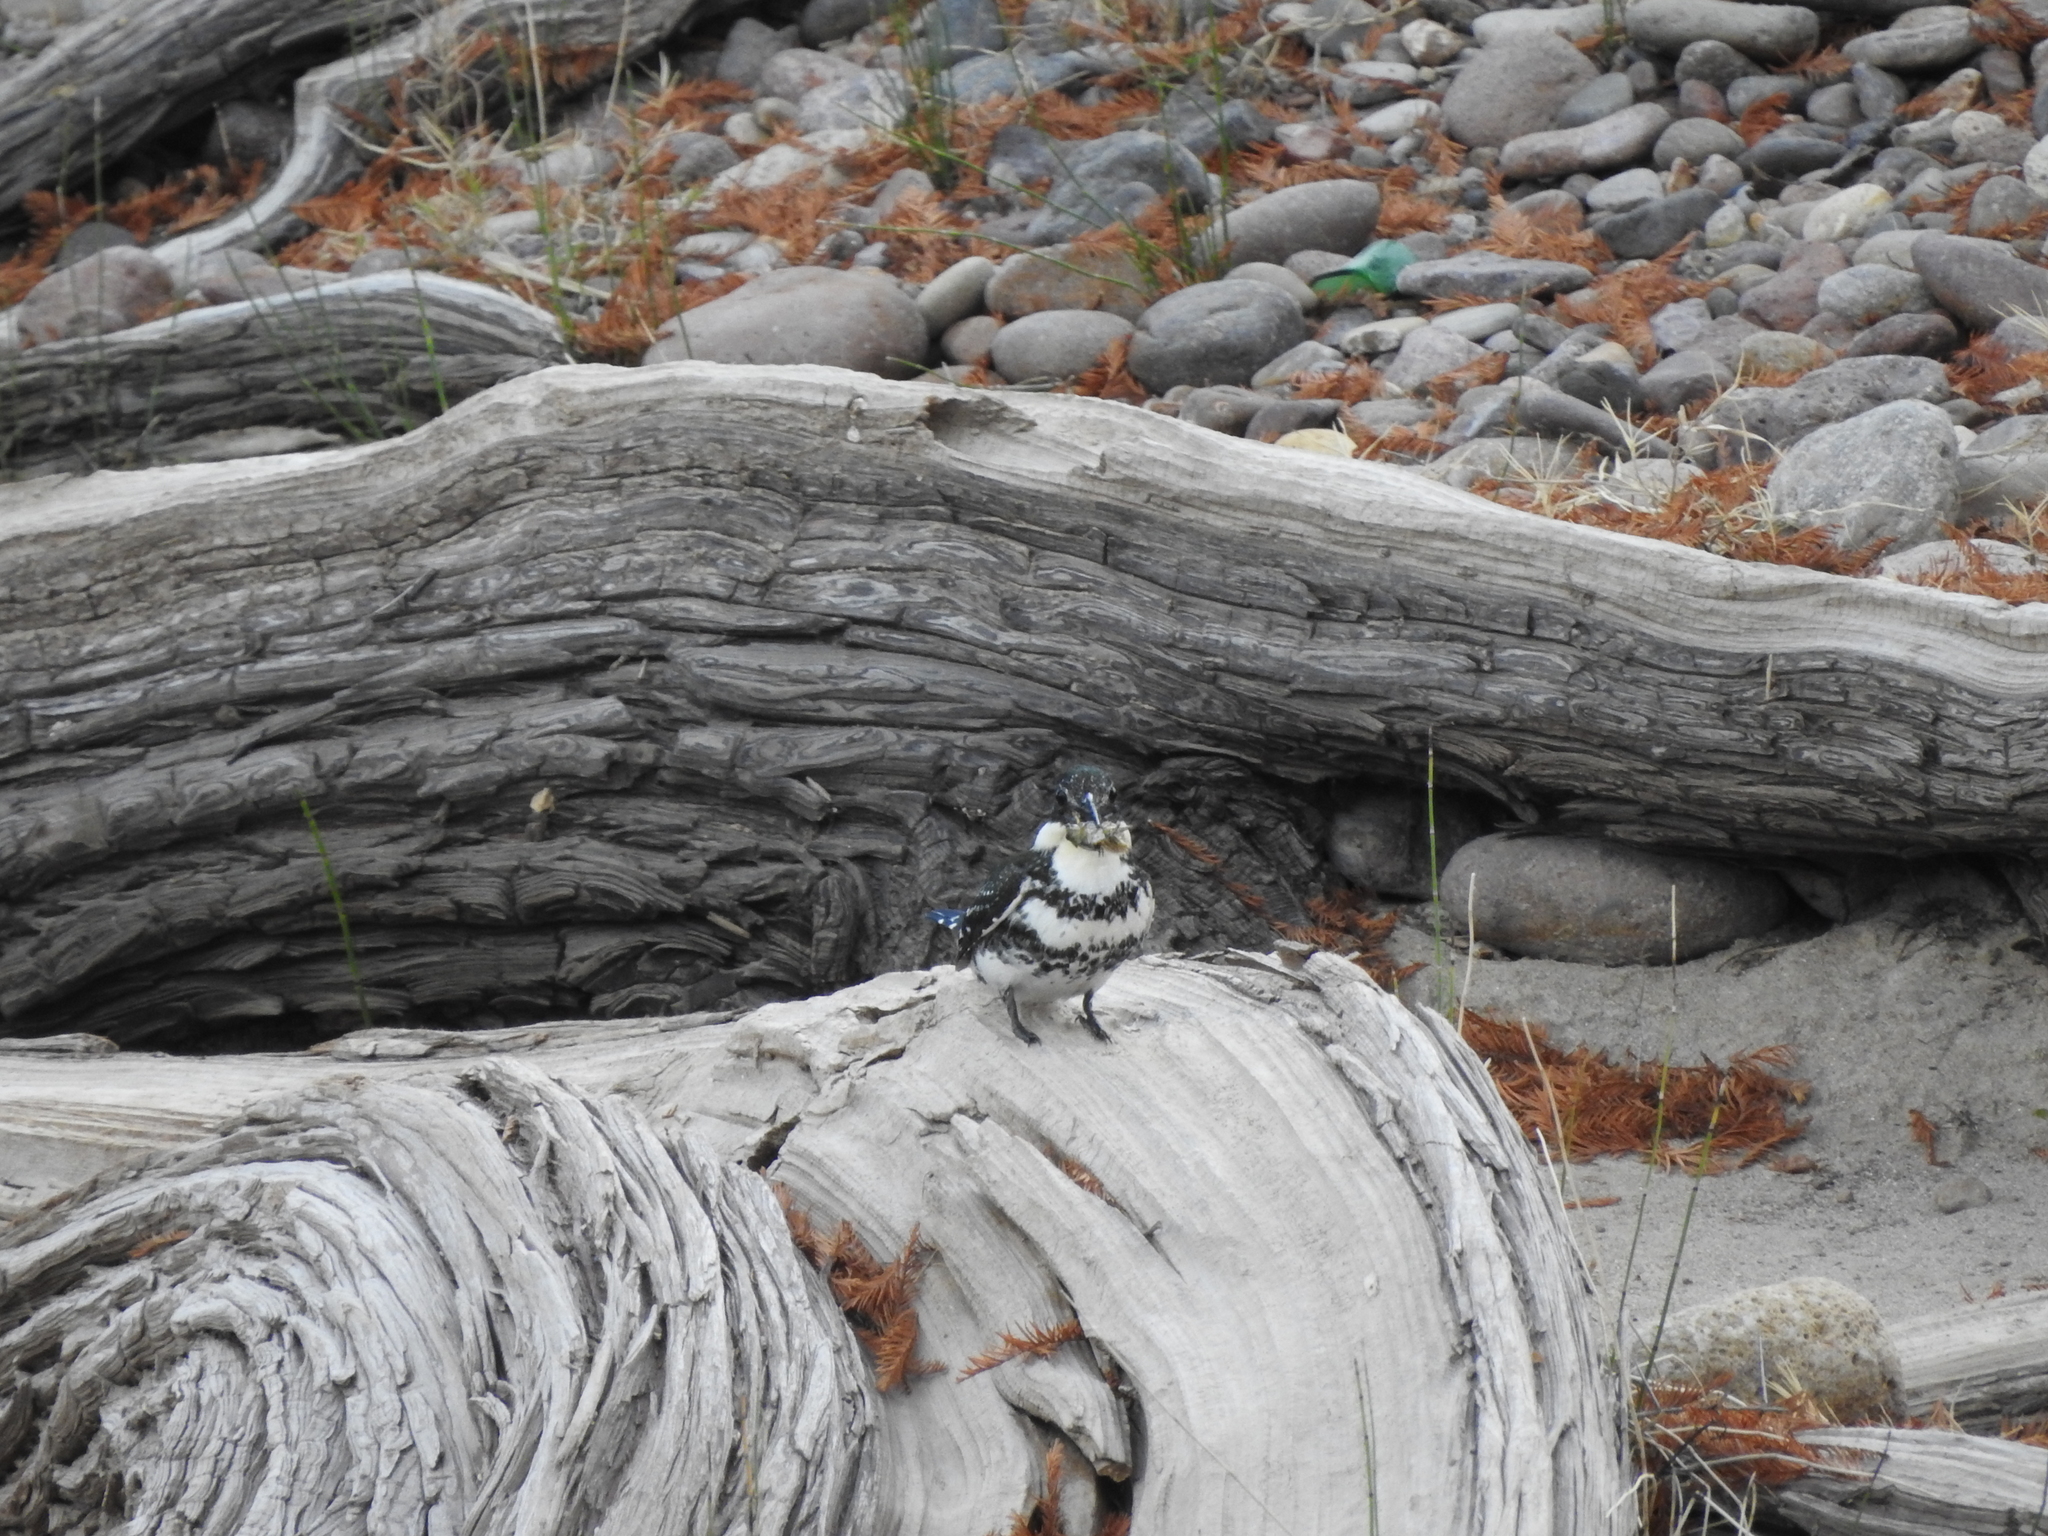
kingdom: Animalia
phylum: Chordata
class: Aves
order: Coraciiformes
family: Alcedinidae
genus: Chloroceryle
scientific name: Chloroceryle americana
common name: Green kingfisher
